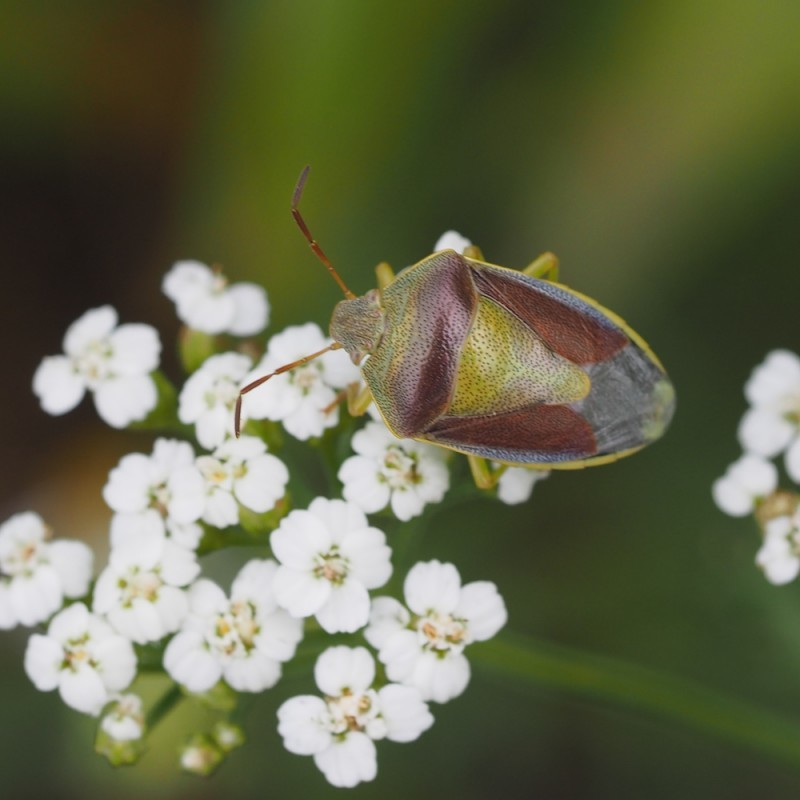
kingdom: Animalia
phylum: Arthropoda
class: Insecta
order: Hemiptera
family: Pentatomidae
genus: Piezodorus
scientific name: Piezodorus lituratus
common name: Stink bug
